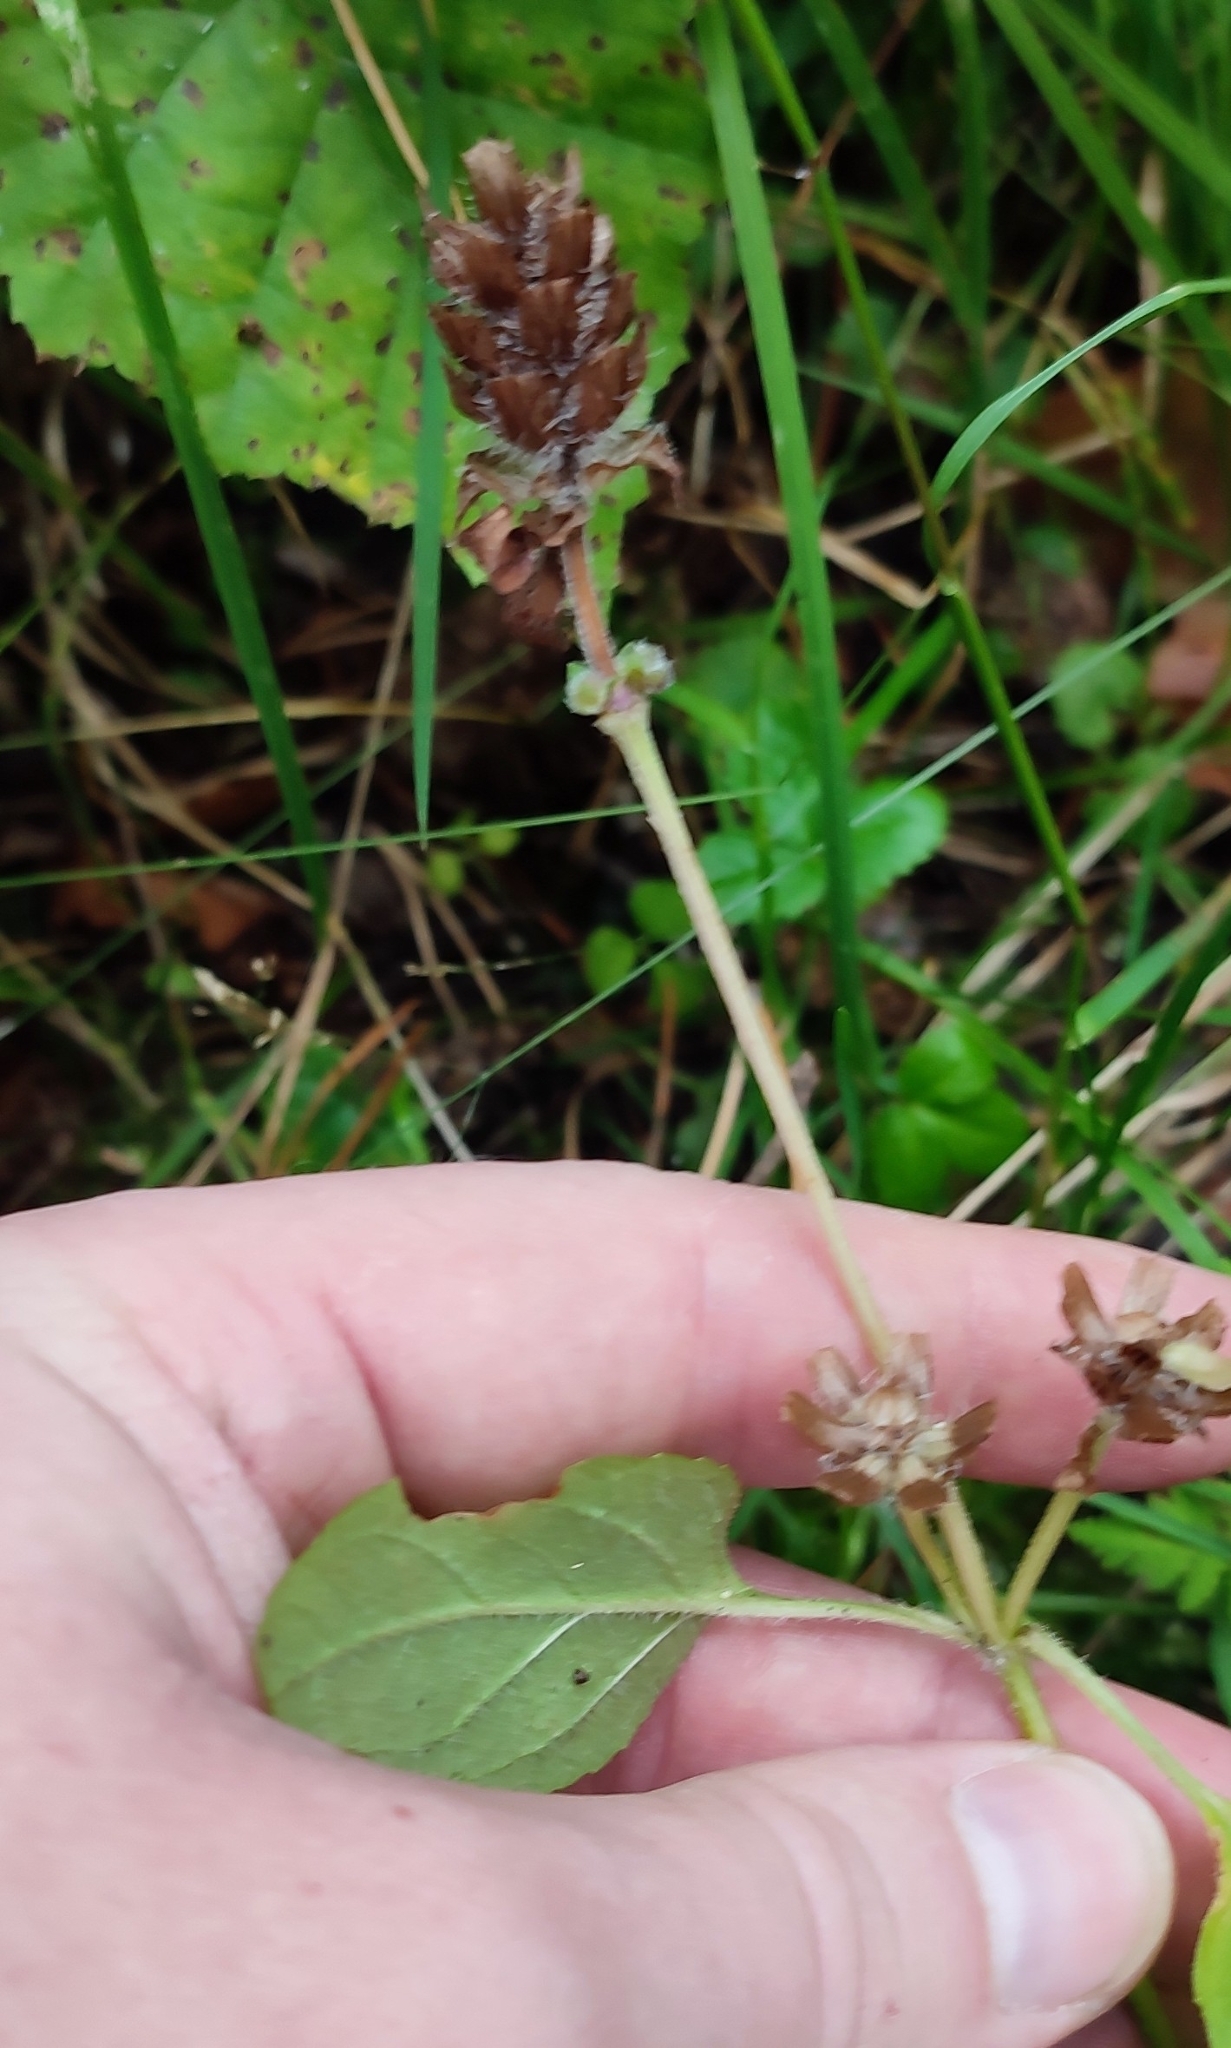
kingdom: Plantae
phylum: Tracheophyta
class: Magnoliopsida
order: Lamiales
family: Lamiaceae
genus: Prunella
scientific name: Prunella vulgaris
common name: Heal-all
